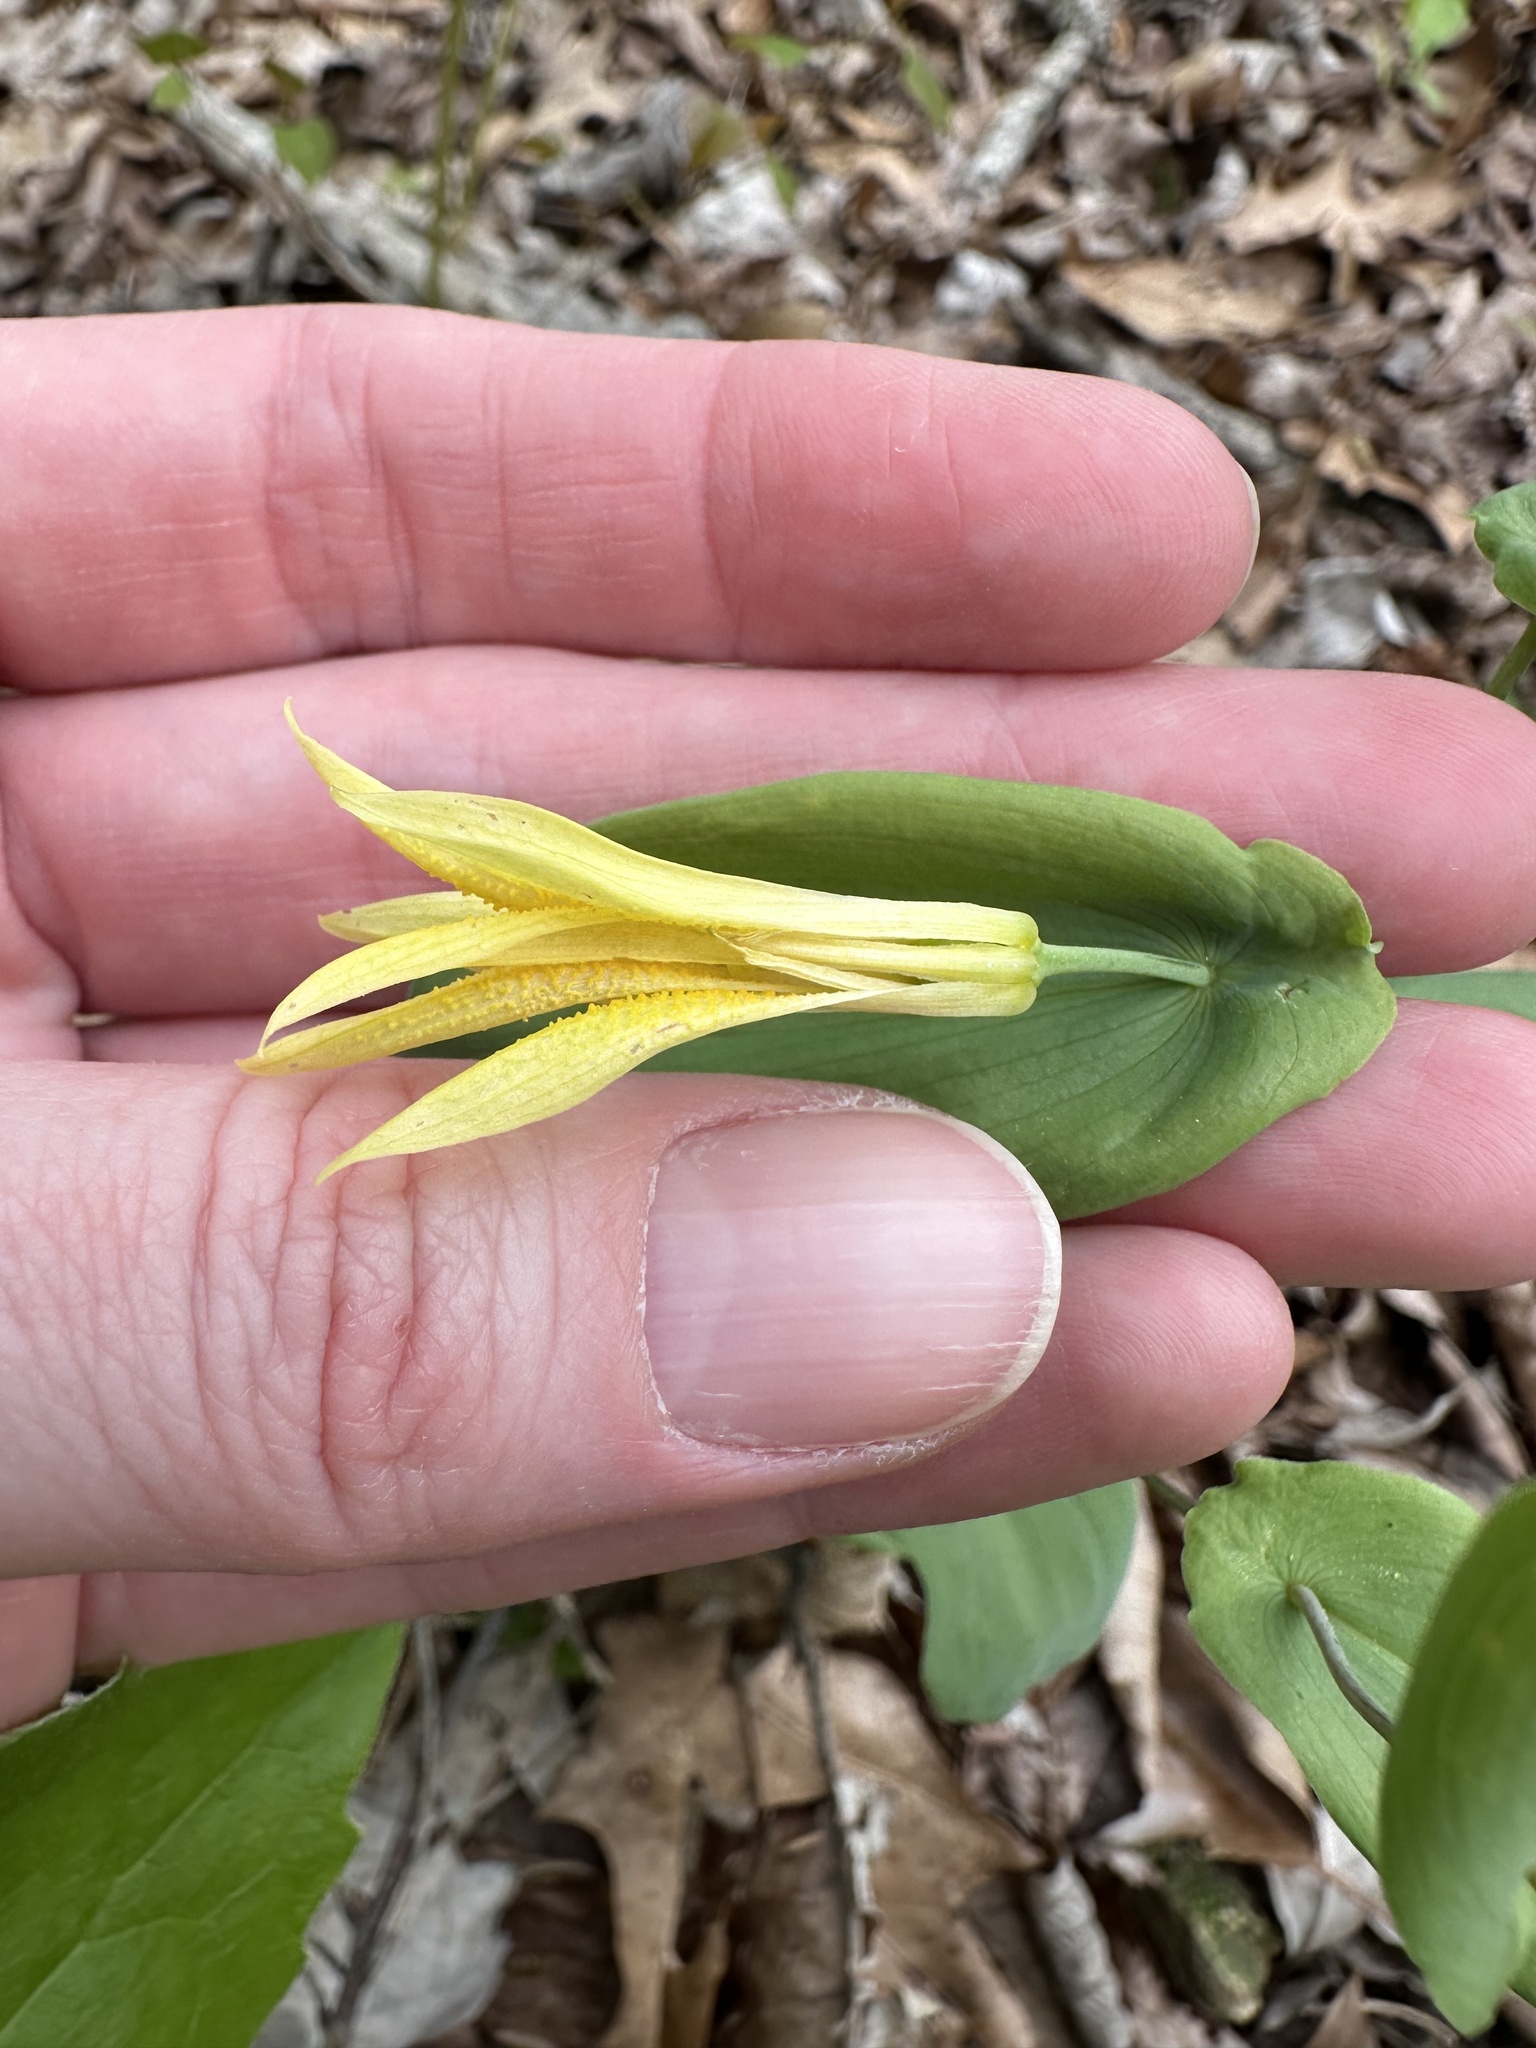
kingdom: Plantae
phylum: Tracheophyta
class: Liliopsida
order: Liliales
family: Colchicaceae
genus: Uvularia
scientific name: Uvularia perfoliata
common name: Perfoliate bellwort
